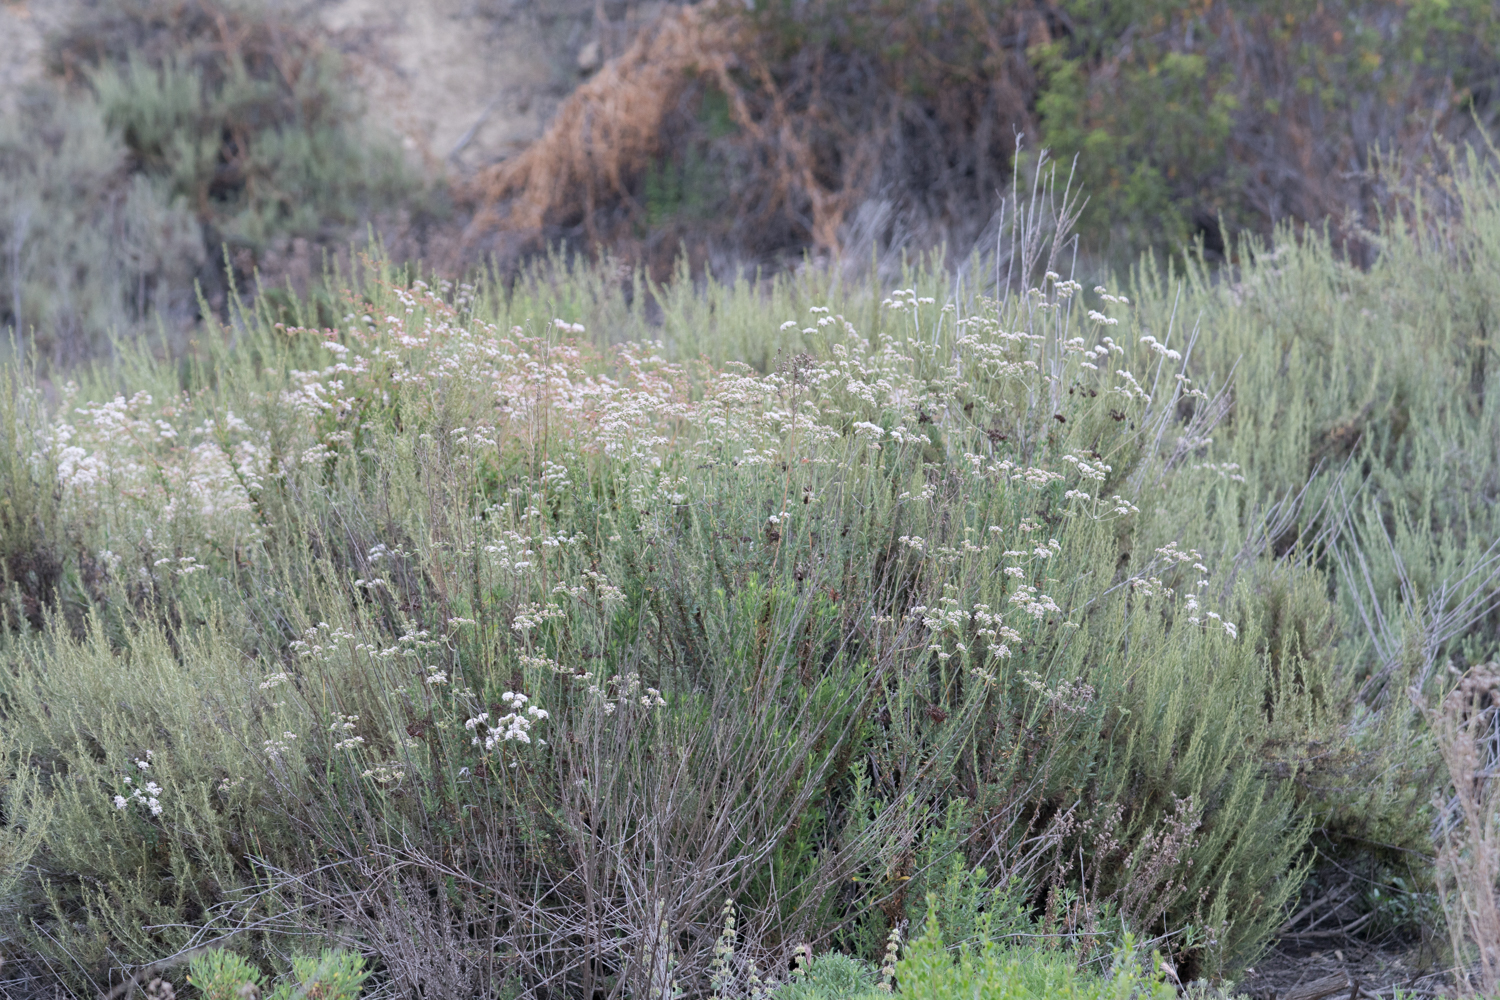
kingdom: Plantae
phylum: Tracheophyta
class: Magnoliopsida
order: Caryophyllales
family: Polygonaceae
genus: Eriogonum
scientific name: Eriogonum fasciculatum
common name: California wild buckwheat
